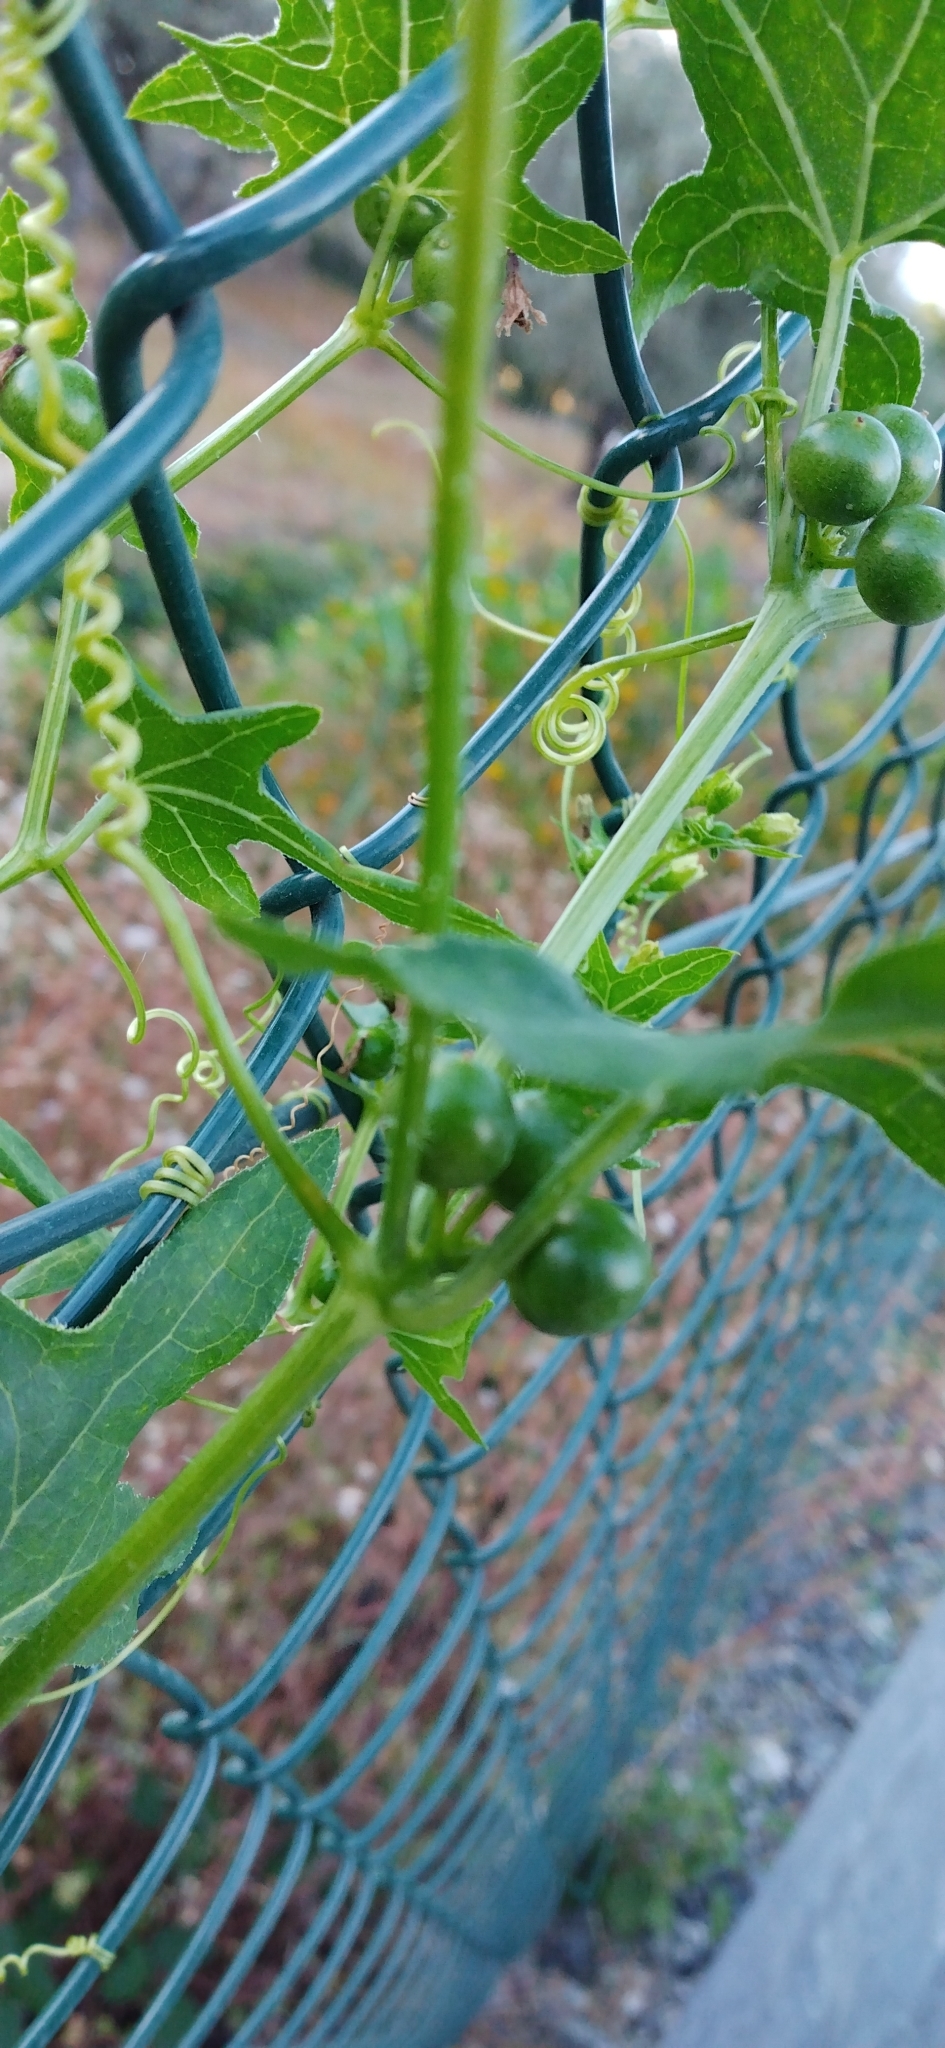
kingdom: Plantae
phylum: Tracheophyta
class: Magnoliopsida
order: Cucurbitales
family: Cucurbitaceae
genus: Bryonia
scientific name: Bryonia dioica
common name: White bryony
